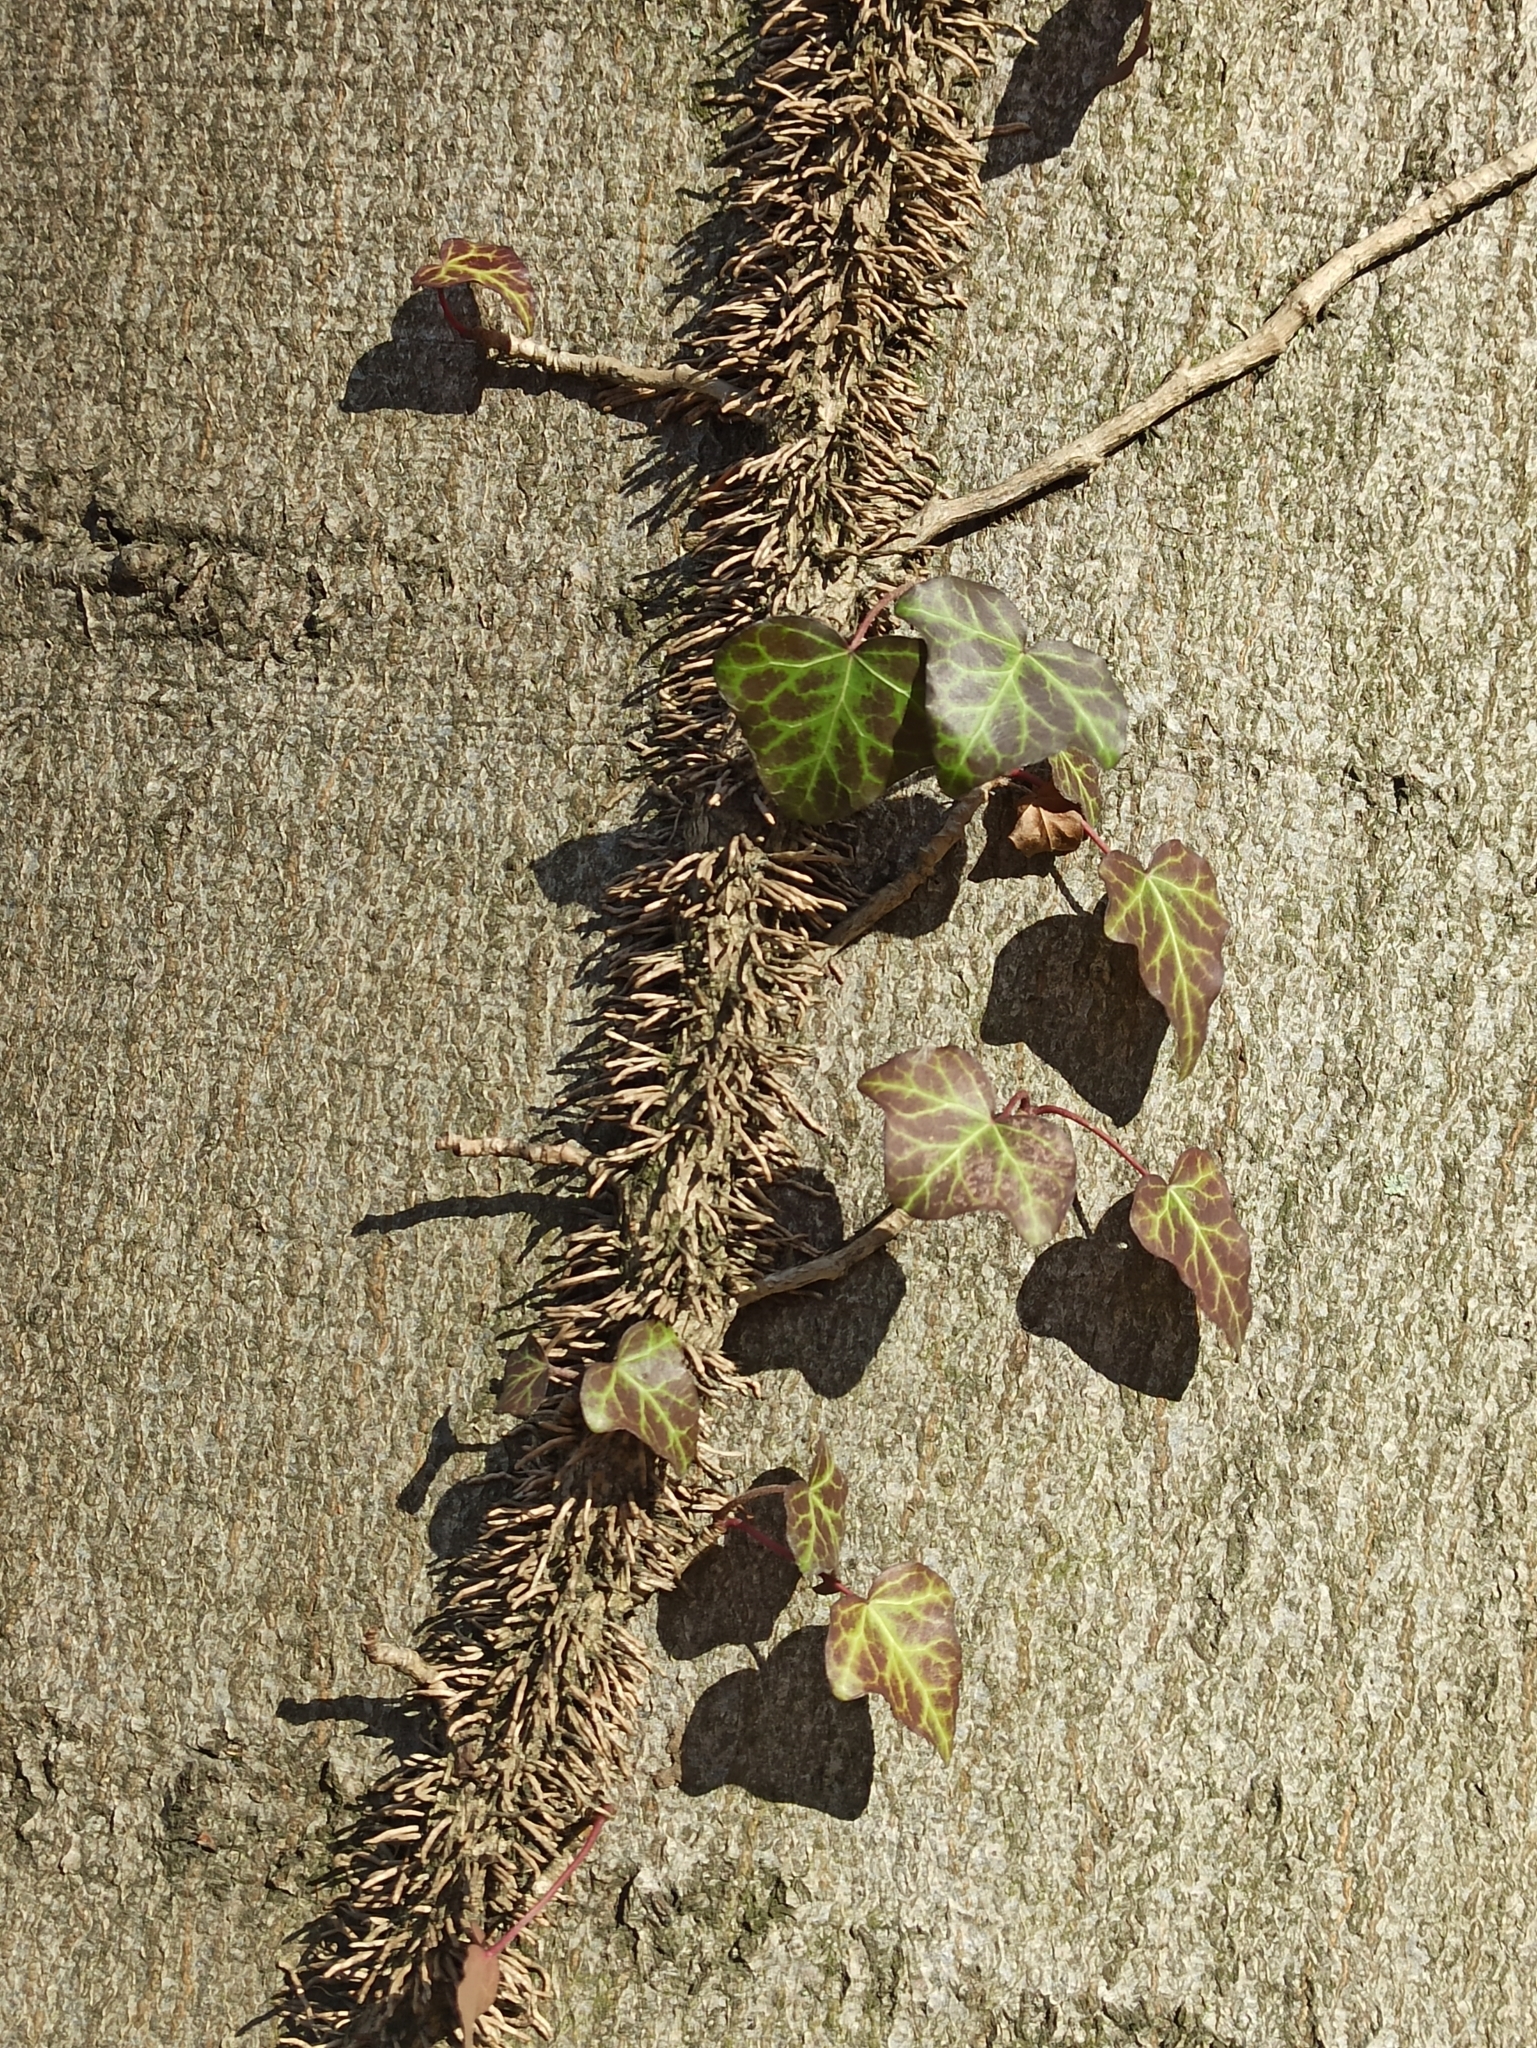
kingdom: Plantae
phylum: Tracheophyta
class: Magnoliopsida
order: Apiales
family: Araliaceae
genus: Hedera
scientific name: Hedera helix
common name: Ivy
